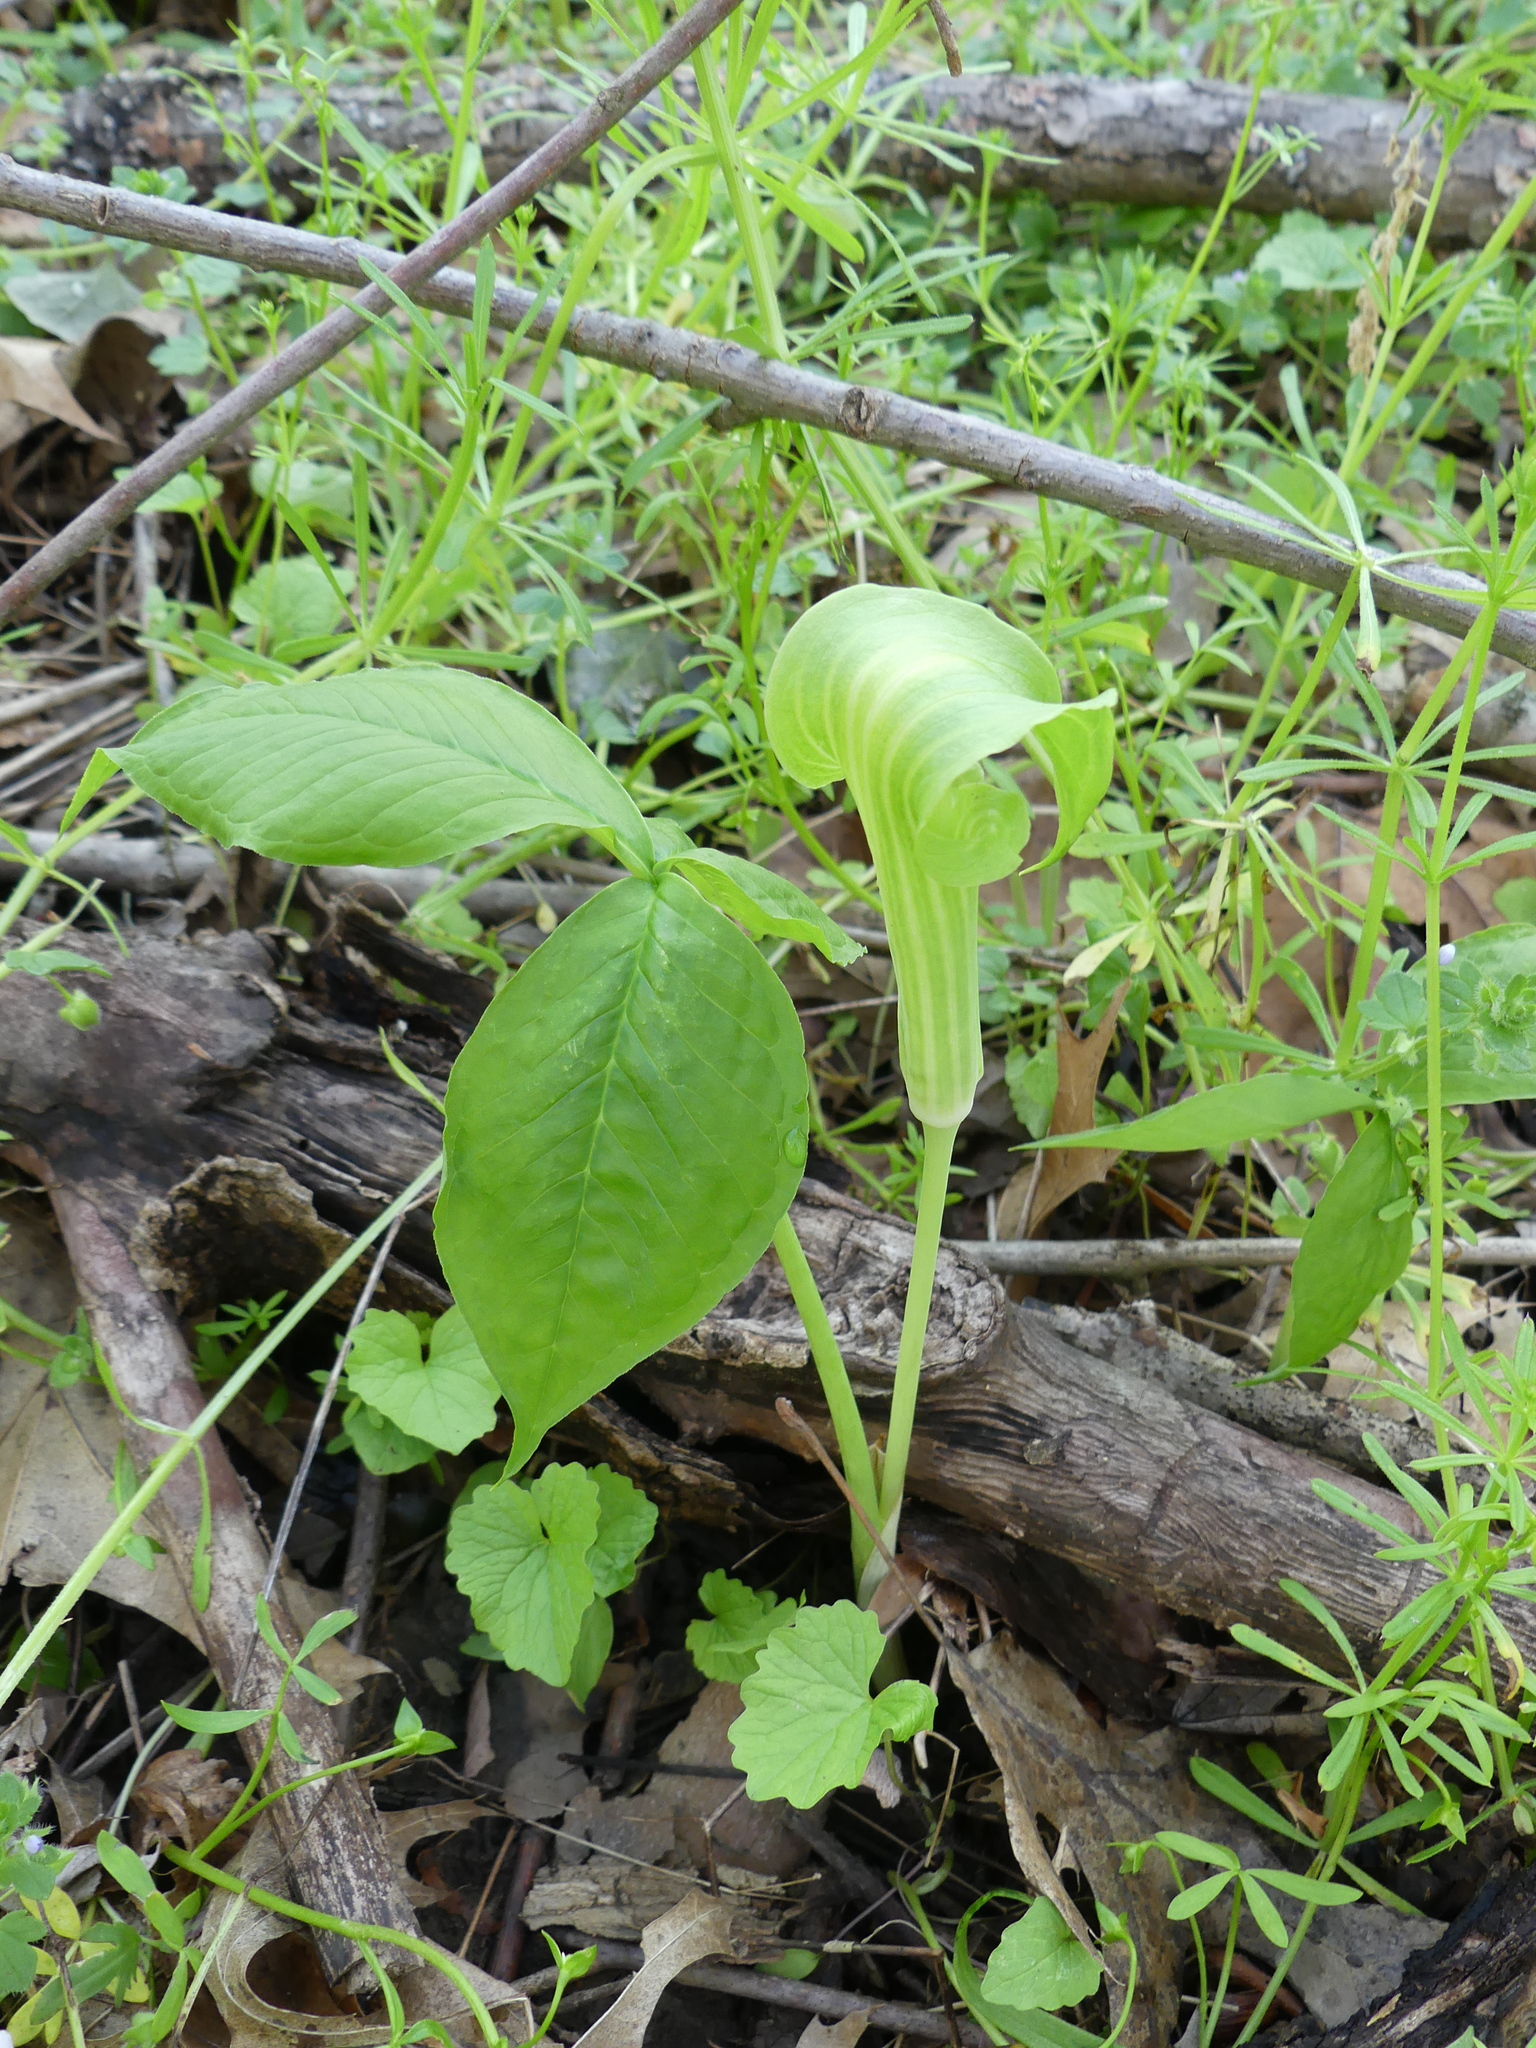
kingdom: Plantae
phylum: Tracheophyta
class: Liliopsida
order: Alismatales
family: Araceae
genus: Arisaema
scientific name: Arisaema triphyllum
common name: Jack-in-the-pulpit
